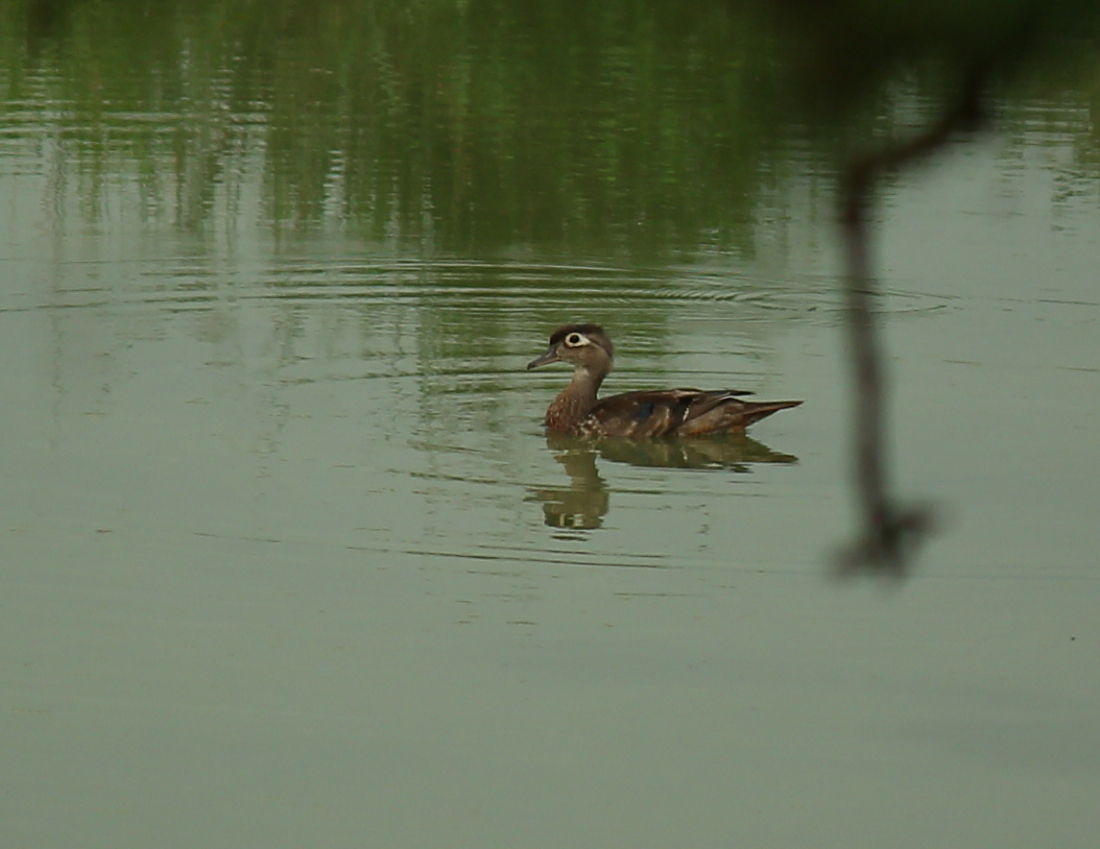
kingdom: Animalia
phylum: Chordata
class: Aves
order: Anseriformes
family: Anatidae
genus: Aix
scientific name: Aix sponsa
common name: Wood duck
